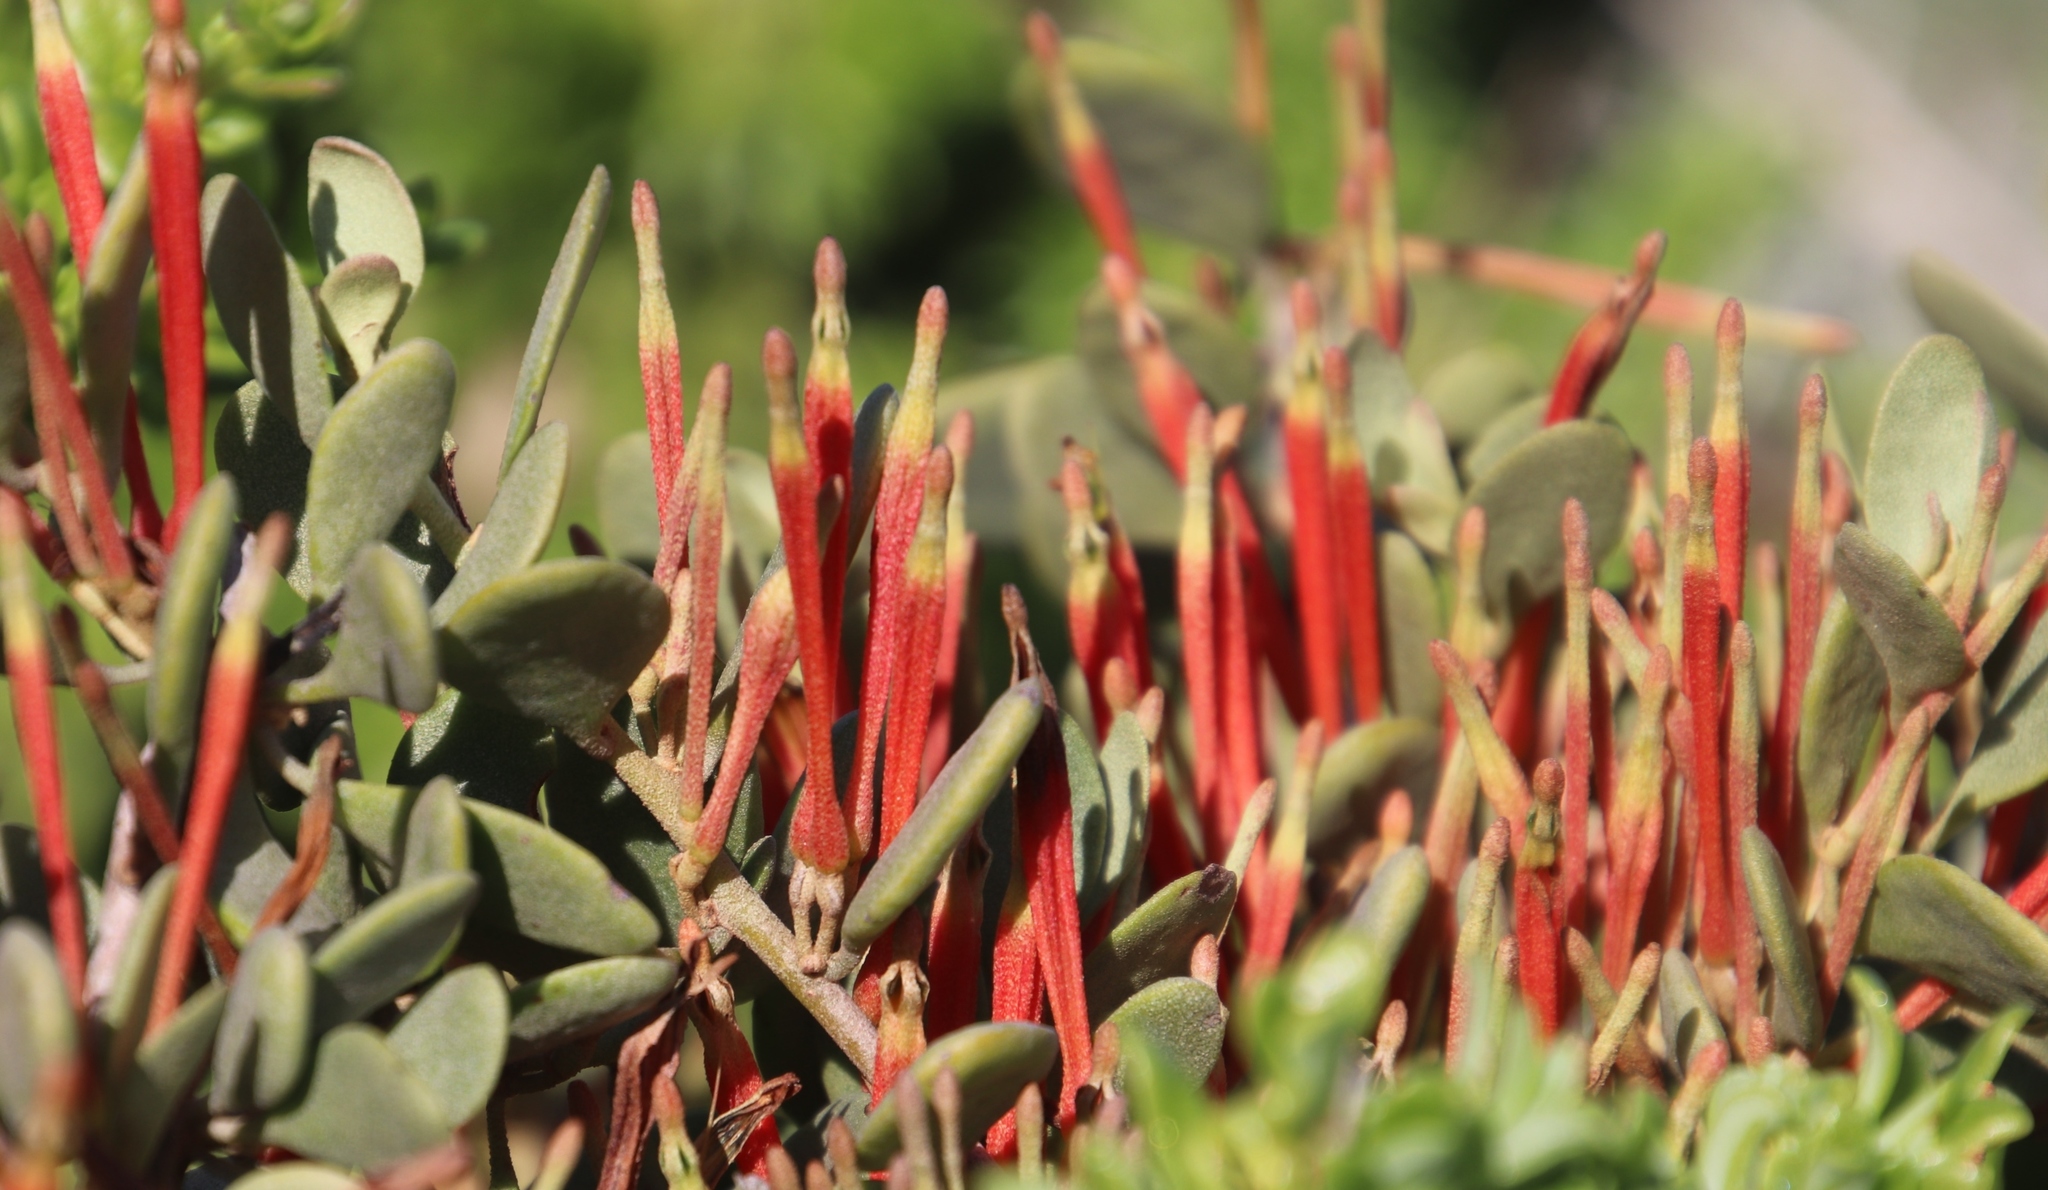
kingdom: Plantae
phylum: Tracheophyta
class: Magnoliopsida
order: Santalales
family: Loranthaceae
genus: Septulina
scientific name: Septulina glauca
